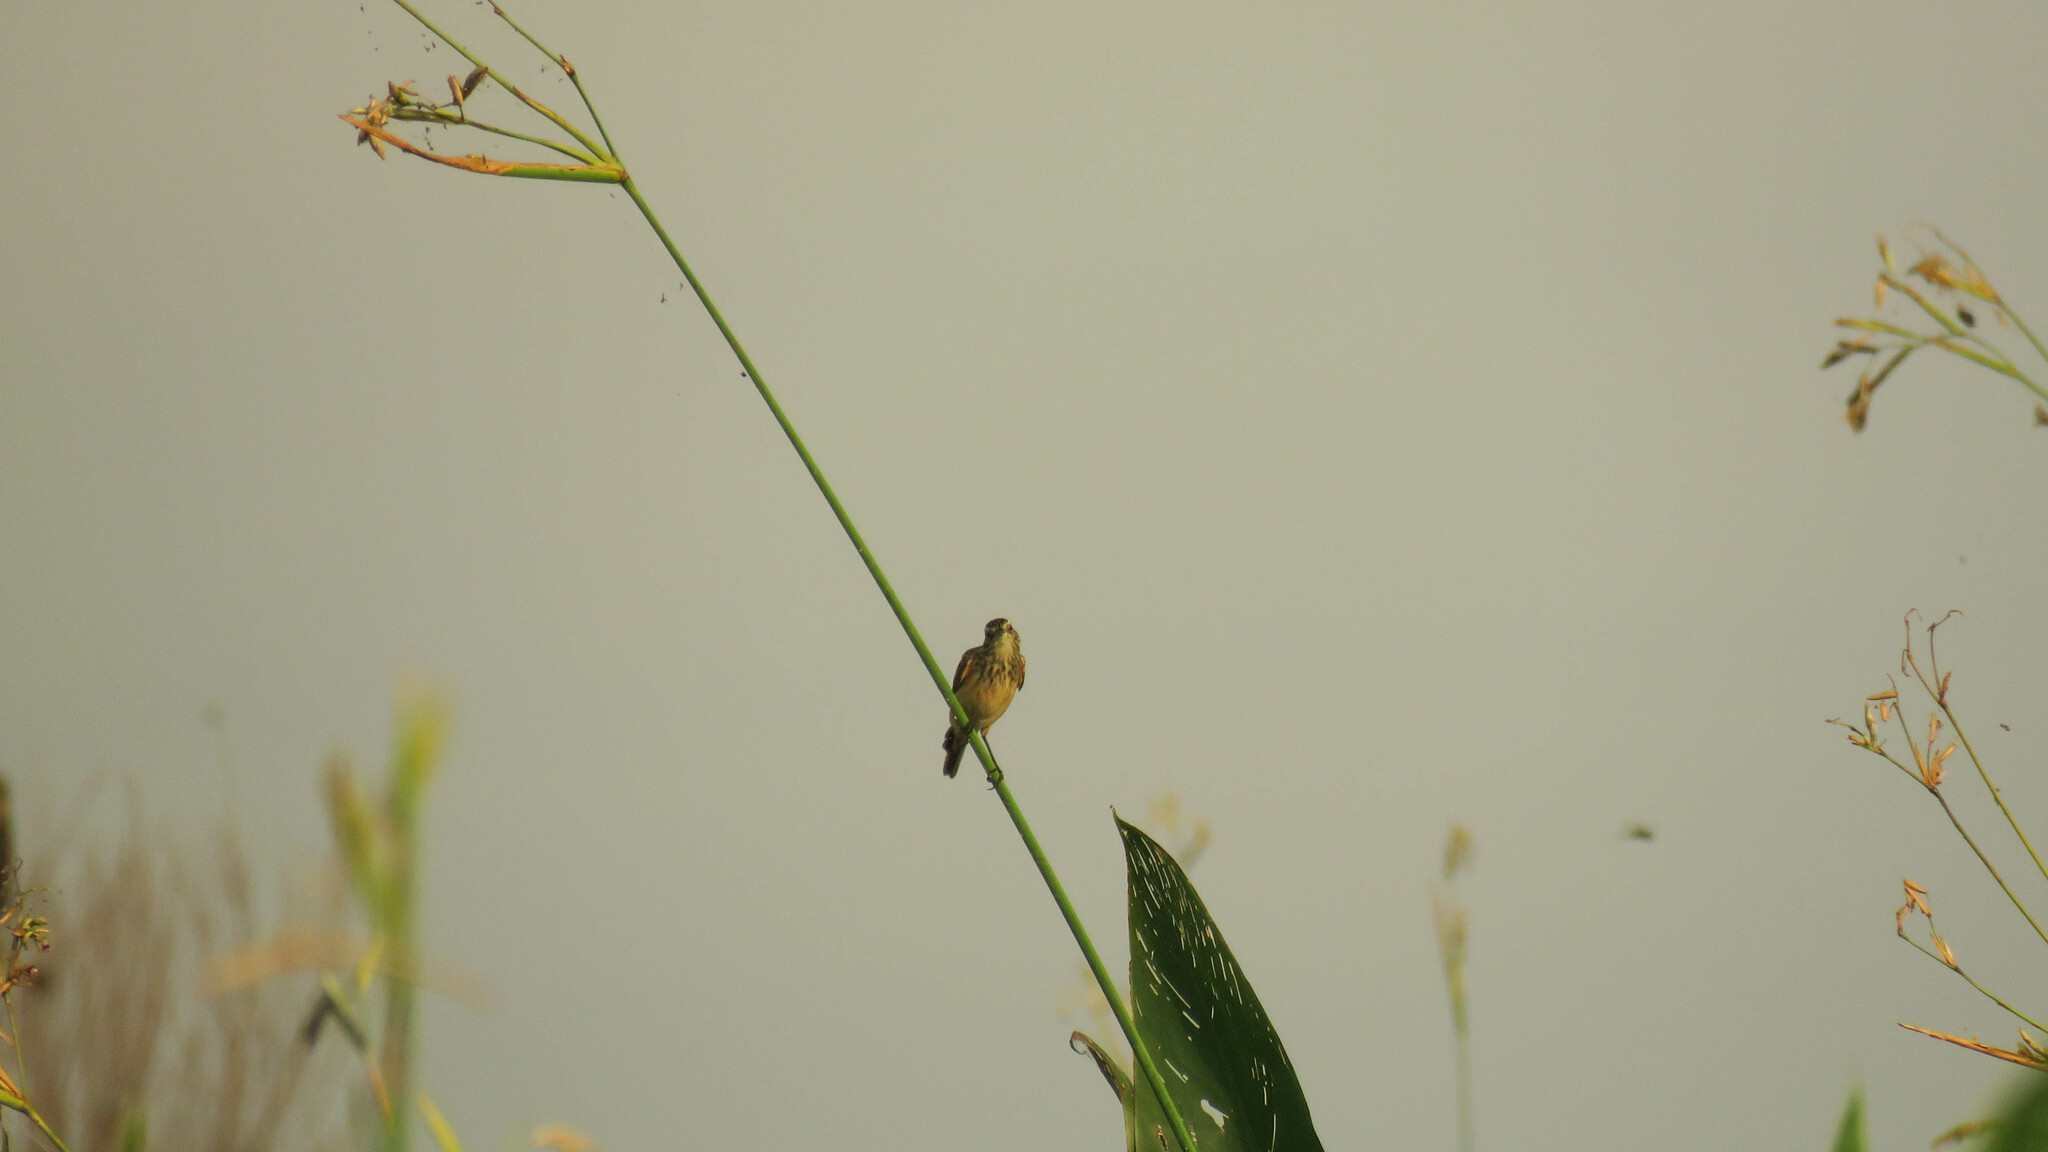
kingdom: Animalia
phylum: Chordata
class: Aves
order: Passeriformes
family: Tyrannidae
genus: Hymenops
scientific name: Hymenops perspicillatus
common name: Spectacled tyrant
